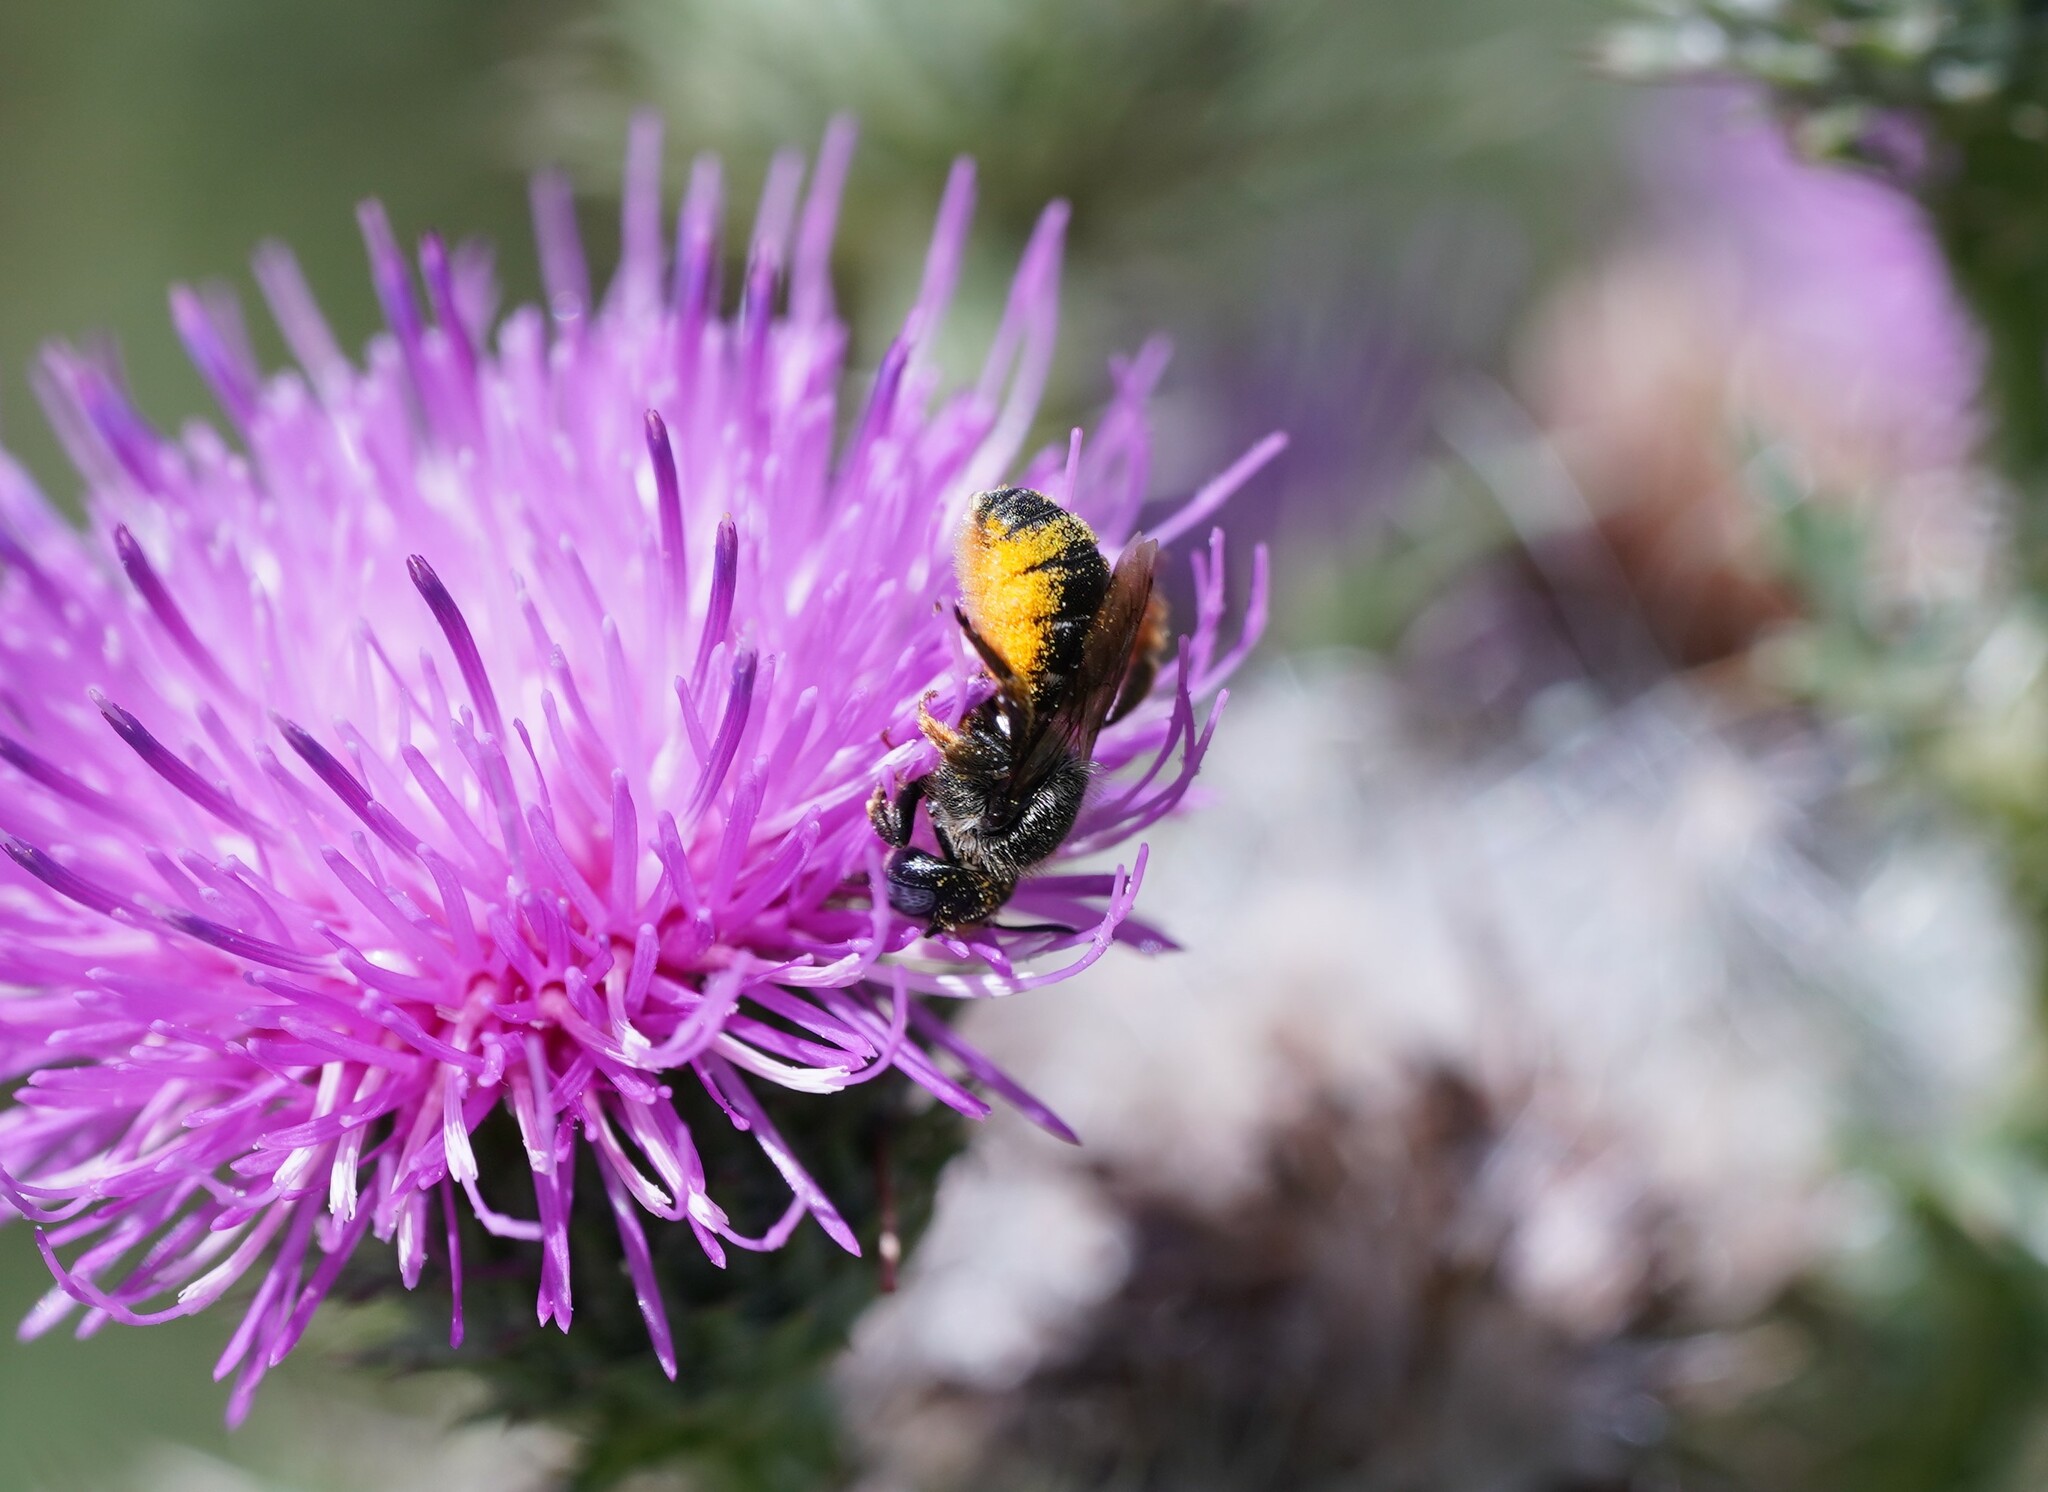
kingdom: Animalia
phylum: Arthropoda
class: Insecta
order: Hymenoptera
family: Megachilidae
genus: Osmia
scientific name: Osmia spinulosa
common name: Spined mason bee
